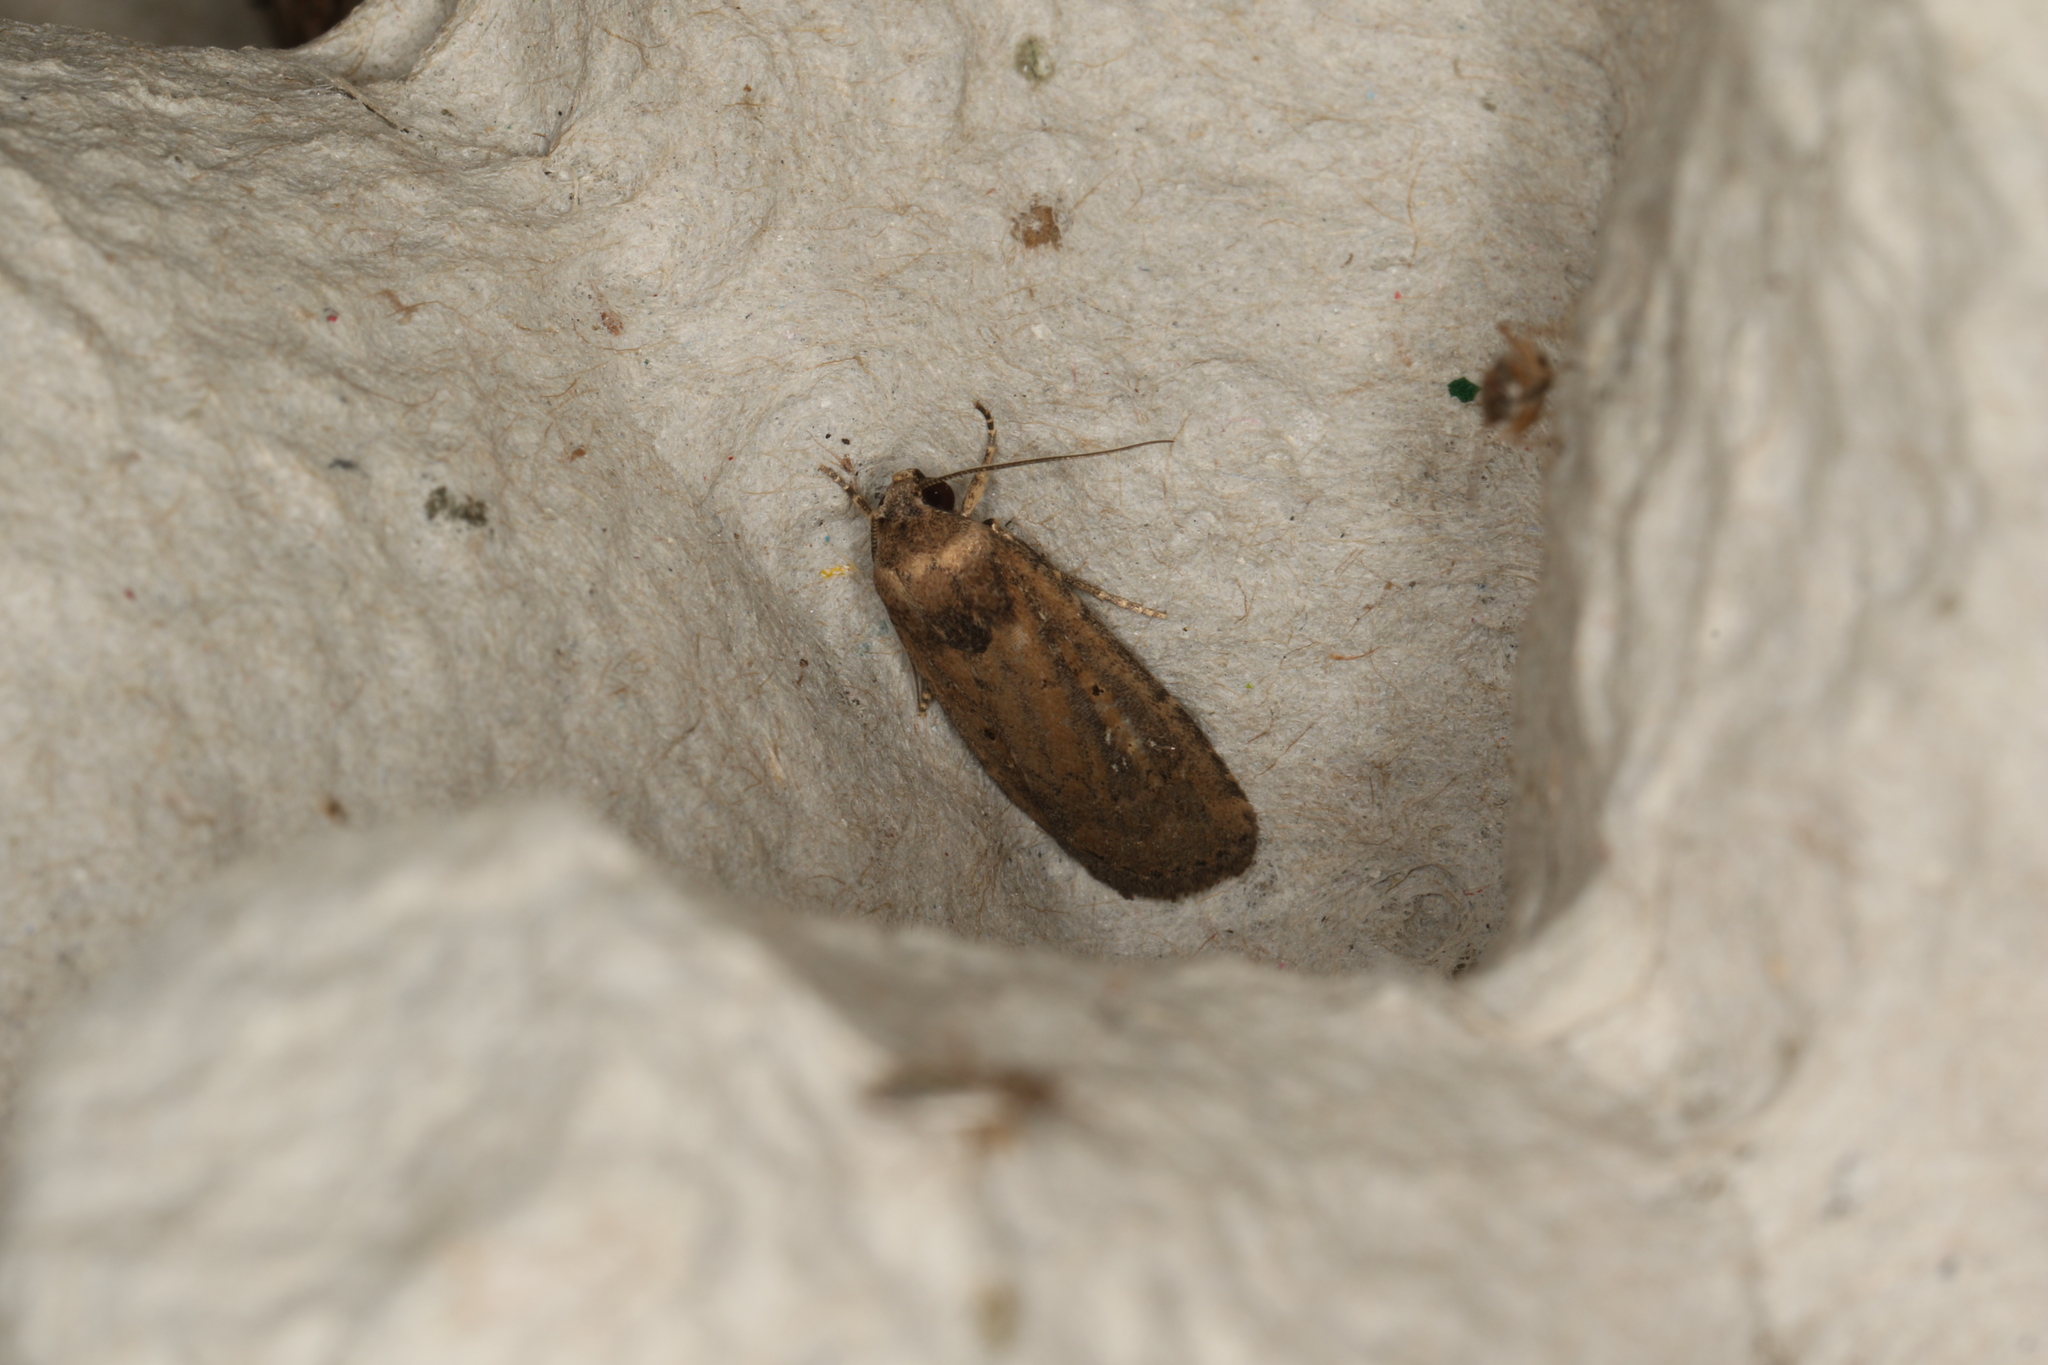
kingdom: Animalia
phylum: Arthropoda
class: Insecta
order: Lepidoptera
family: Noctuidae
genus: Athetis
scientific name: Athetis tenuis
